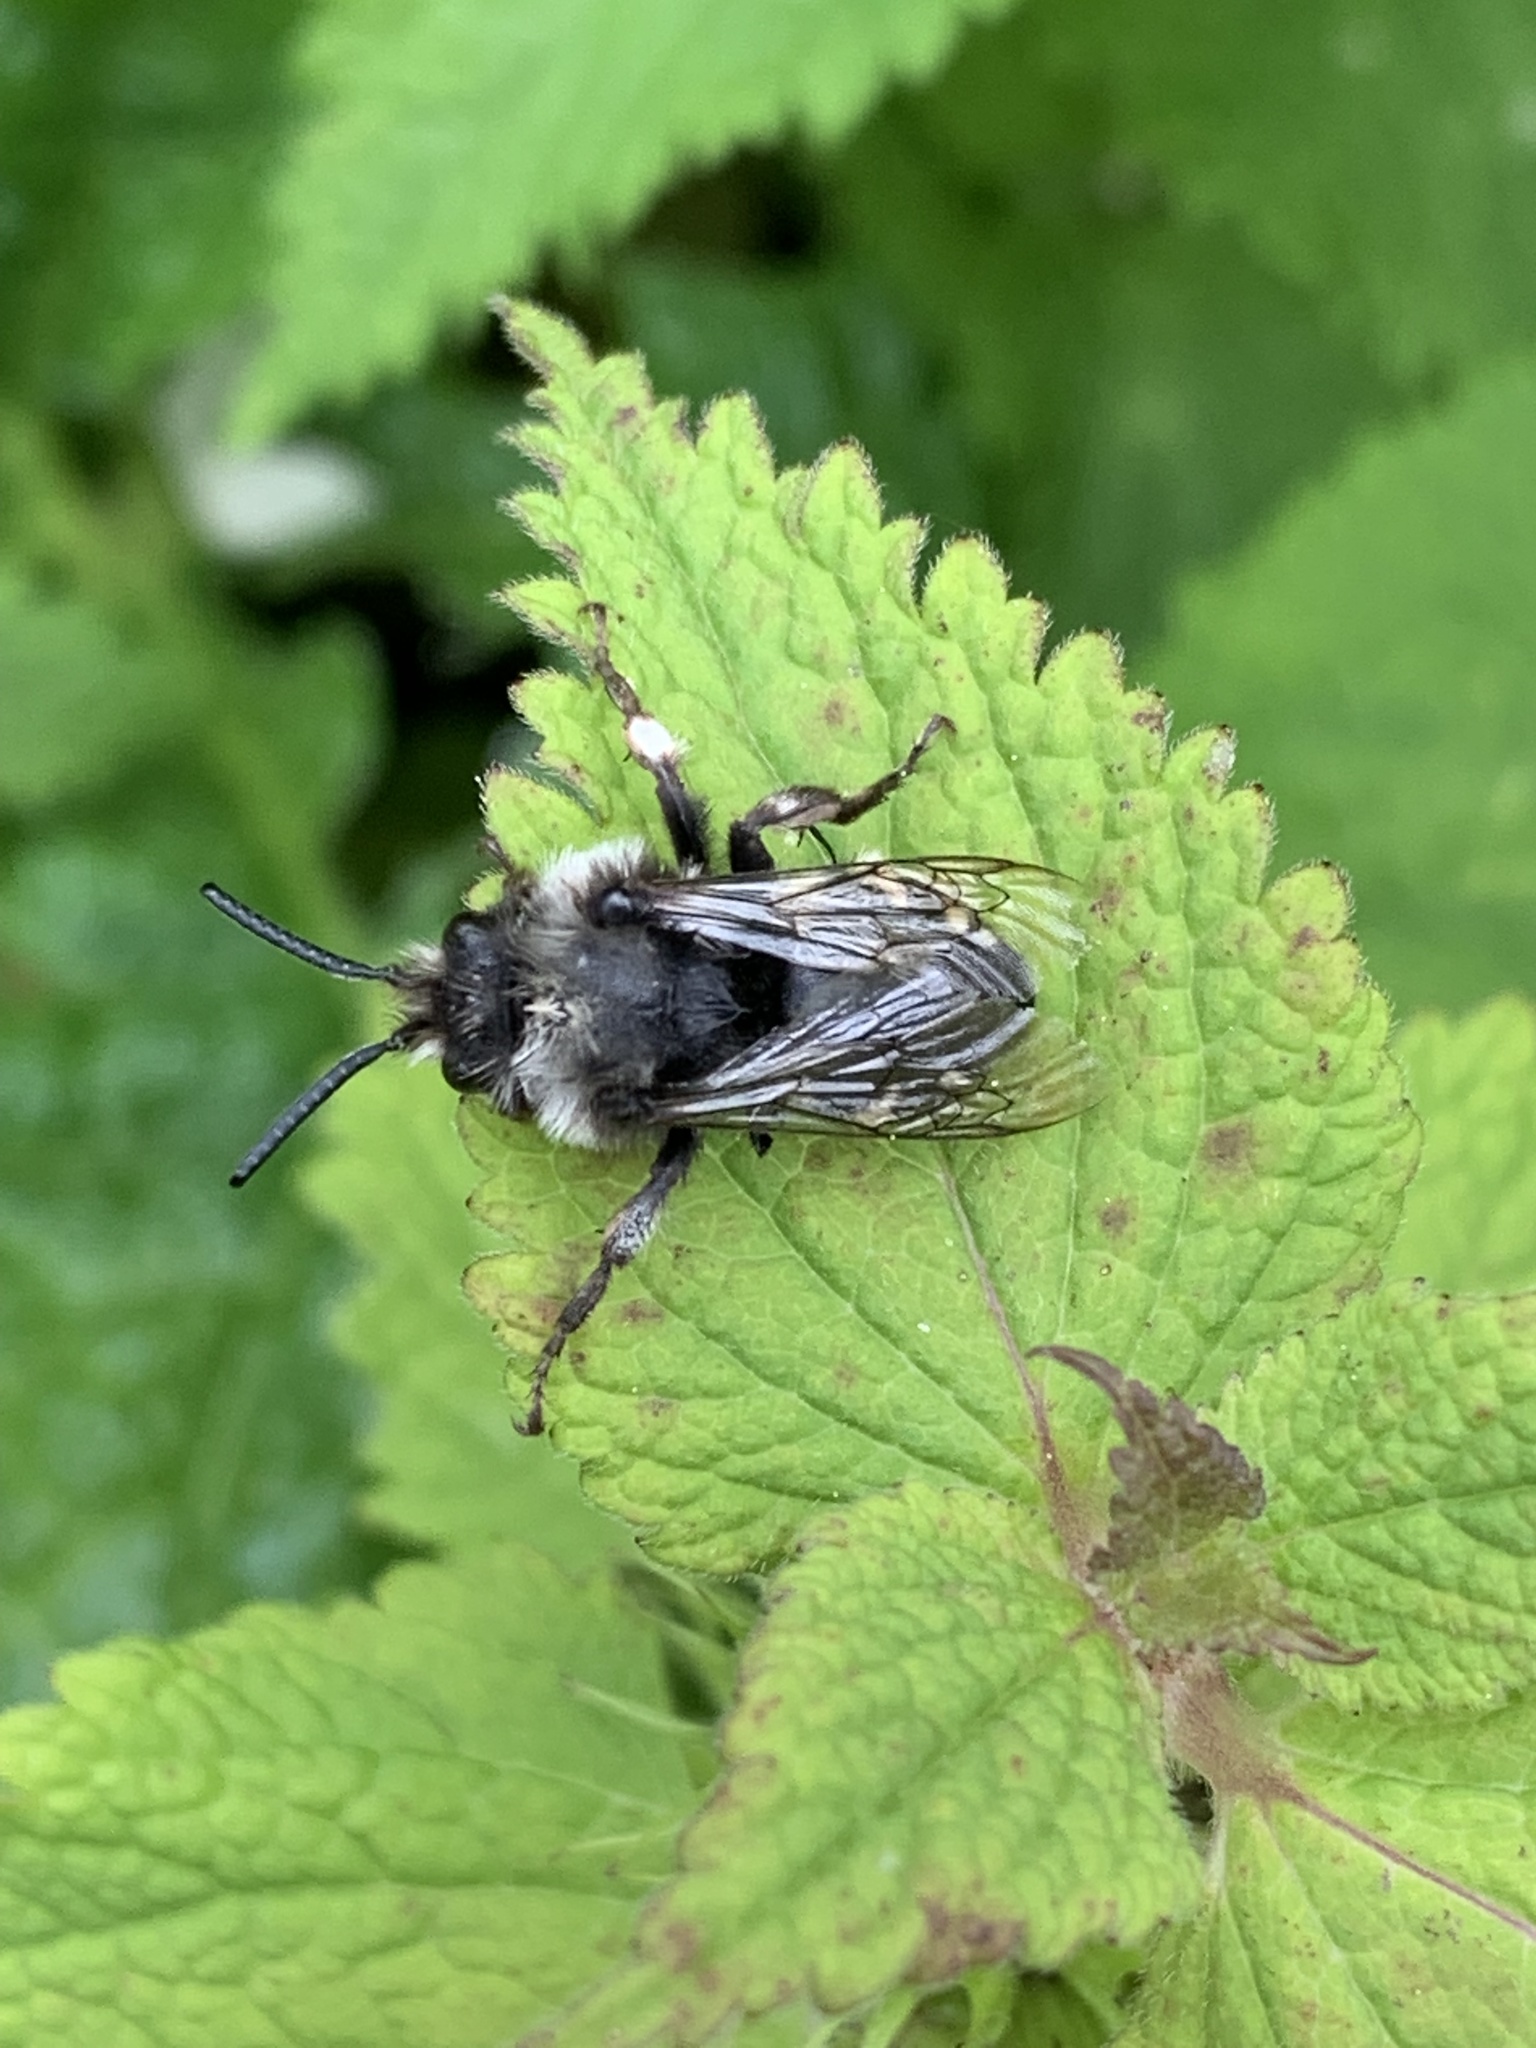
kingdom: Animalia
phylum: Arthropoda
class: Insecta
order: Hymenoptera
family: Apidae
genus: Melecta
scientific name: Melecta albifrons
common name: Common mourning bee
